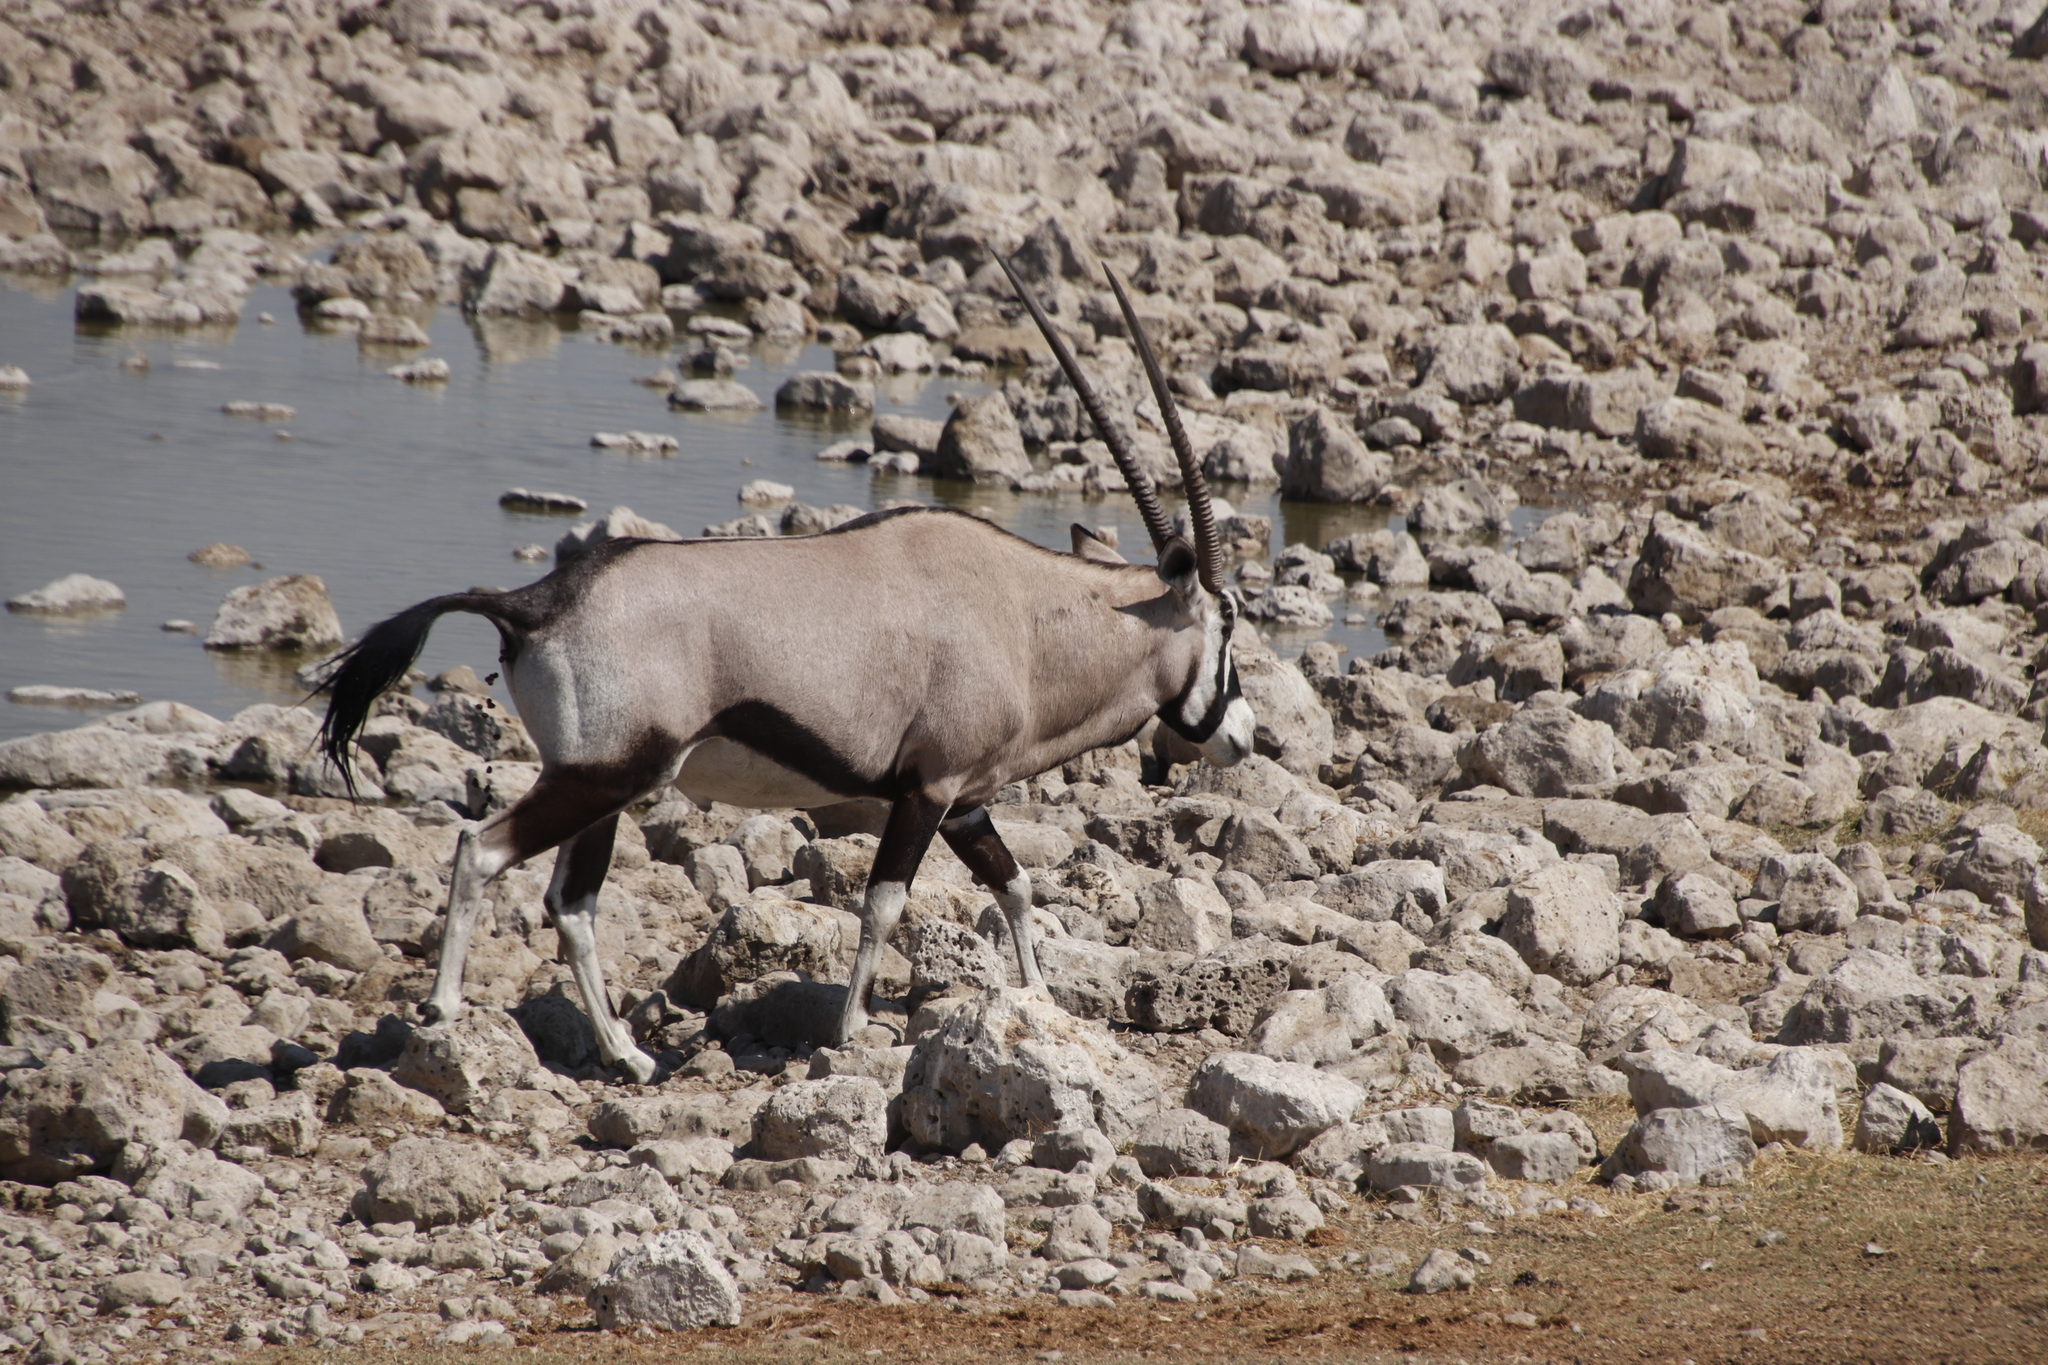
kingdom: Animalia
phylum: Chordata
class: Mammalia
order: Artiodactyla
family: Bovidae
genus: Oryx
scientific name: Oryx gazella
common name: Gemsbok
